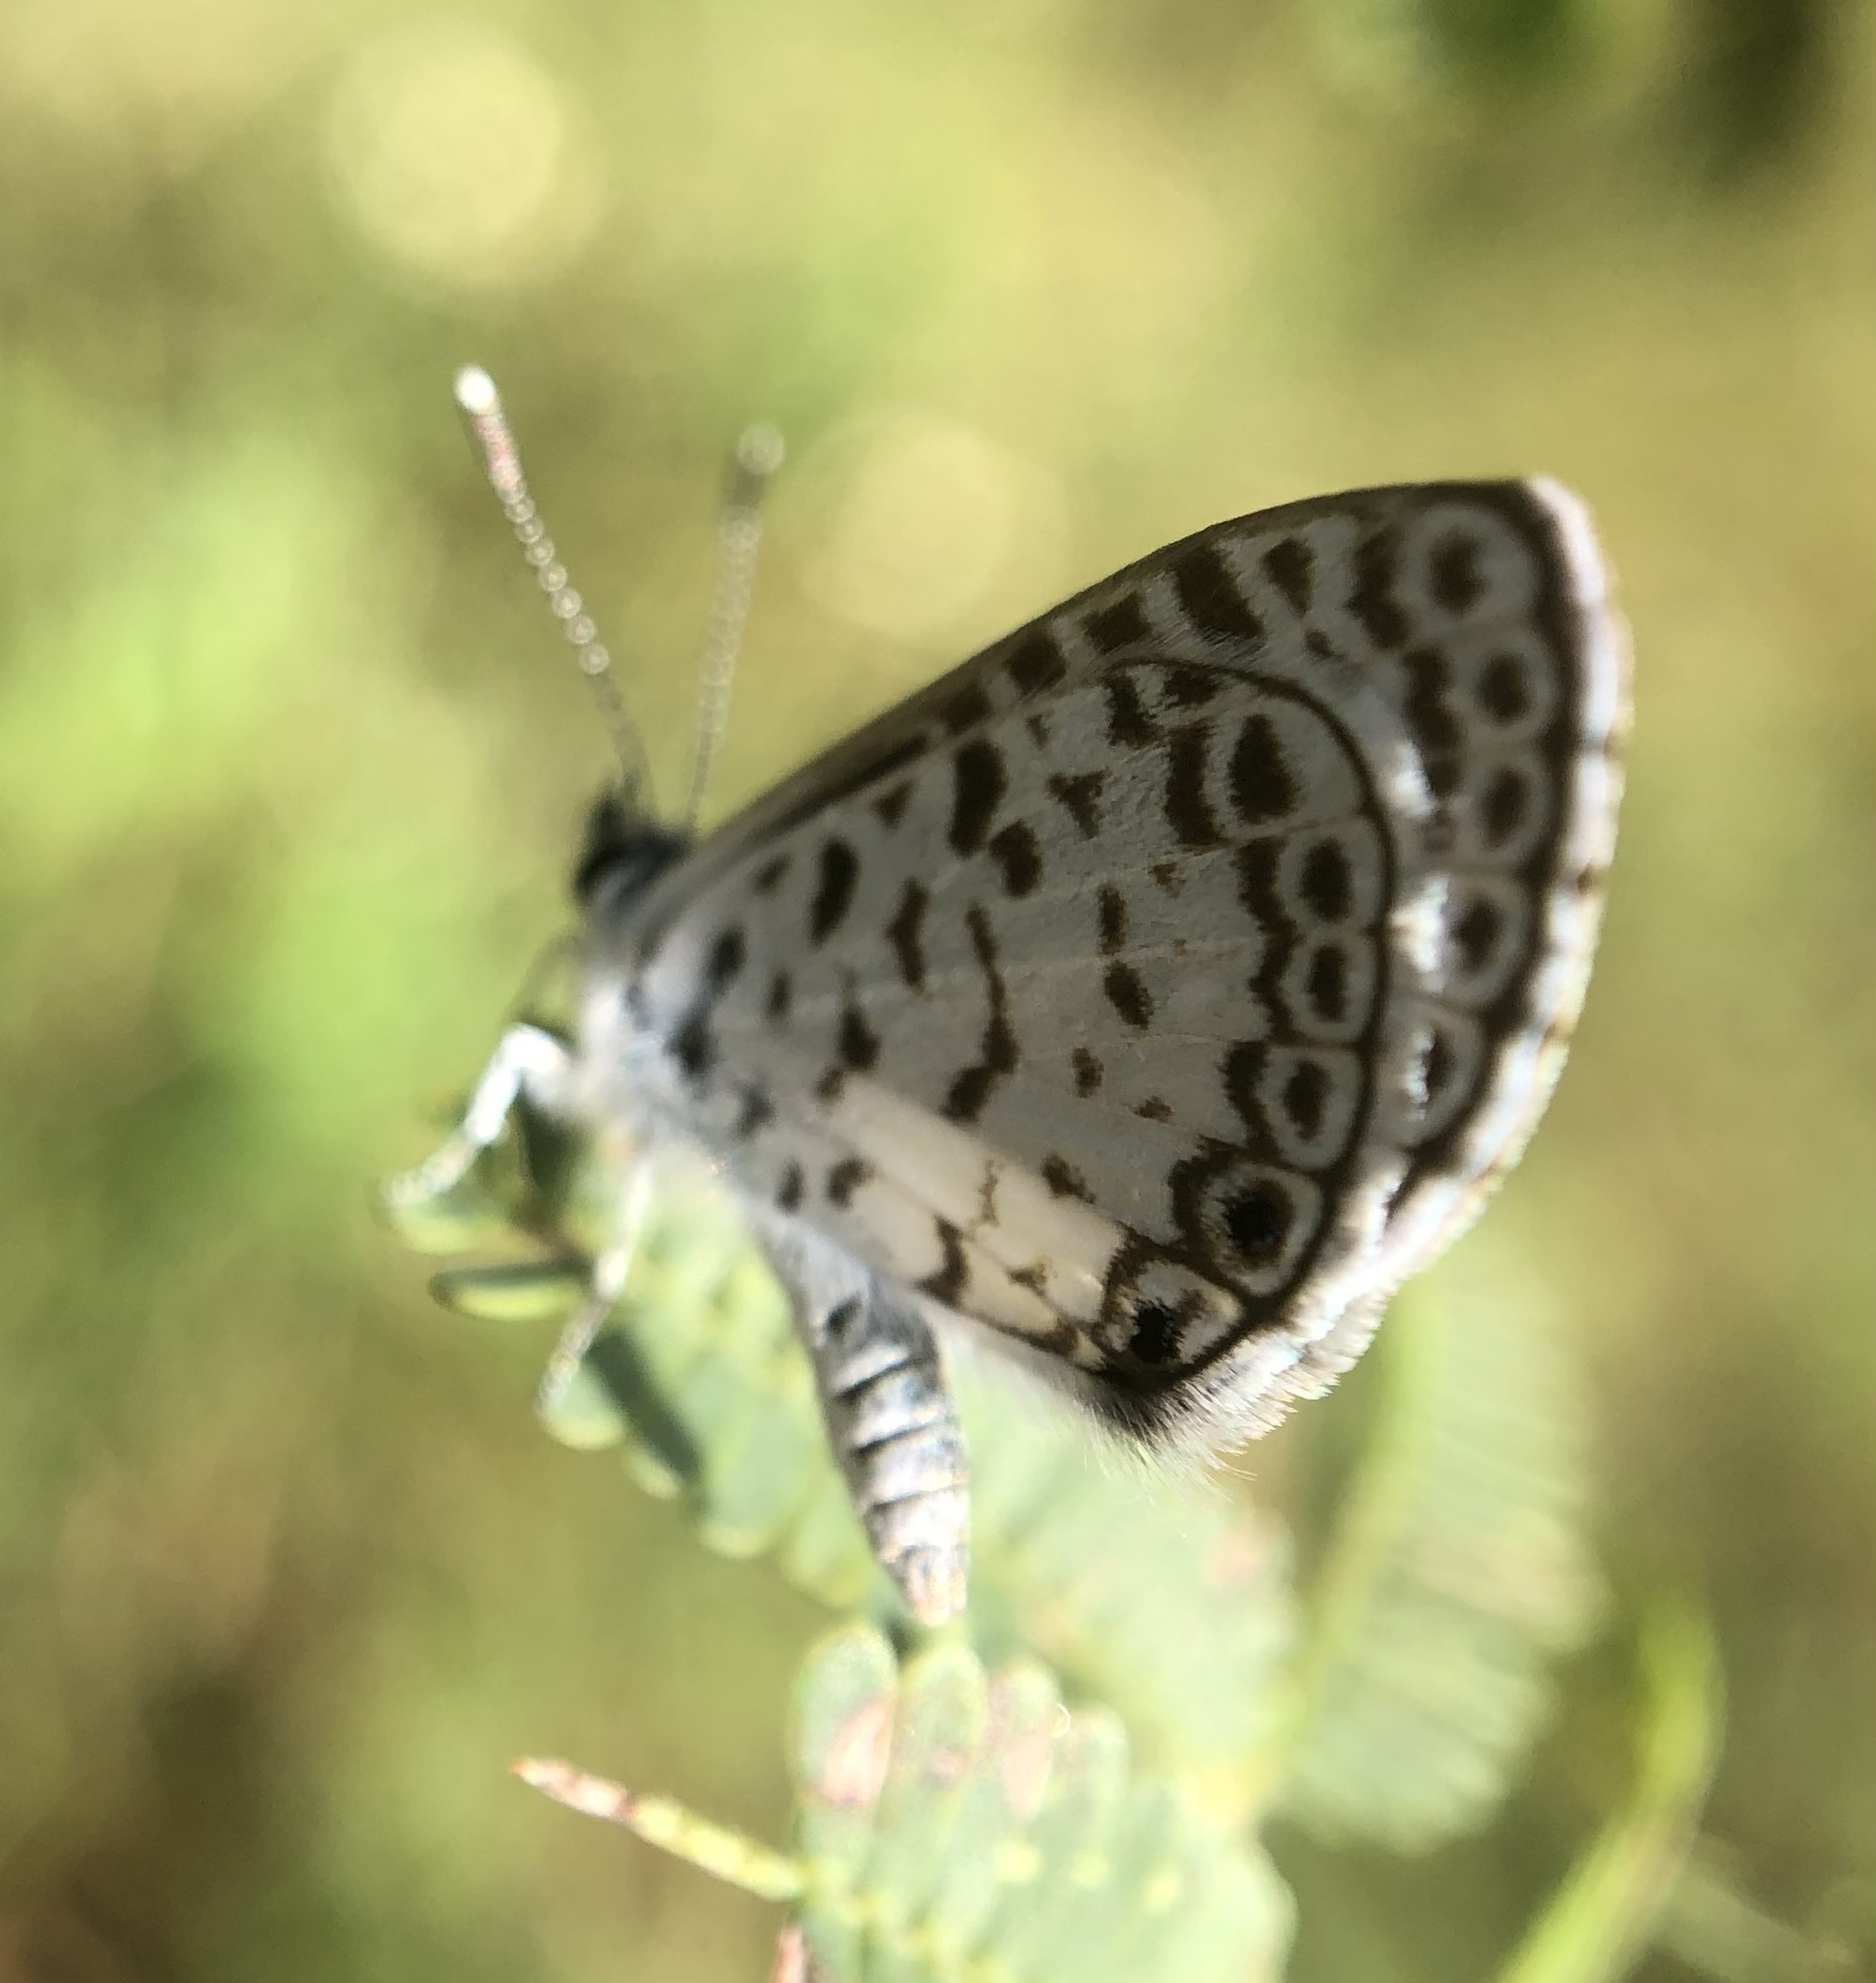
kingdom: Animalia
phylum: Arthropoda
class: Insecta
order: Lepidoptera
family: Lycaenidae
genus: Leptotes
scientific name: Leptotes cassius
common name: Cassius blue
